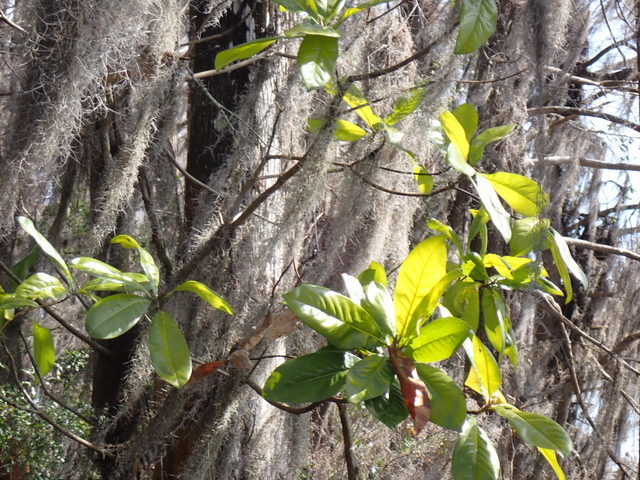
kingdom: Plantae
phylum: Tracheophyta
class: Magnoliopsida
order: Magnoliales
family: Magnoliaceae
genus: Magnolia
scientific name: Magnolia grandiflora
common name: Southern magnolia
